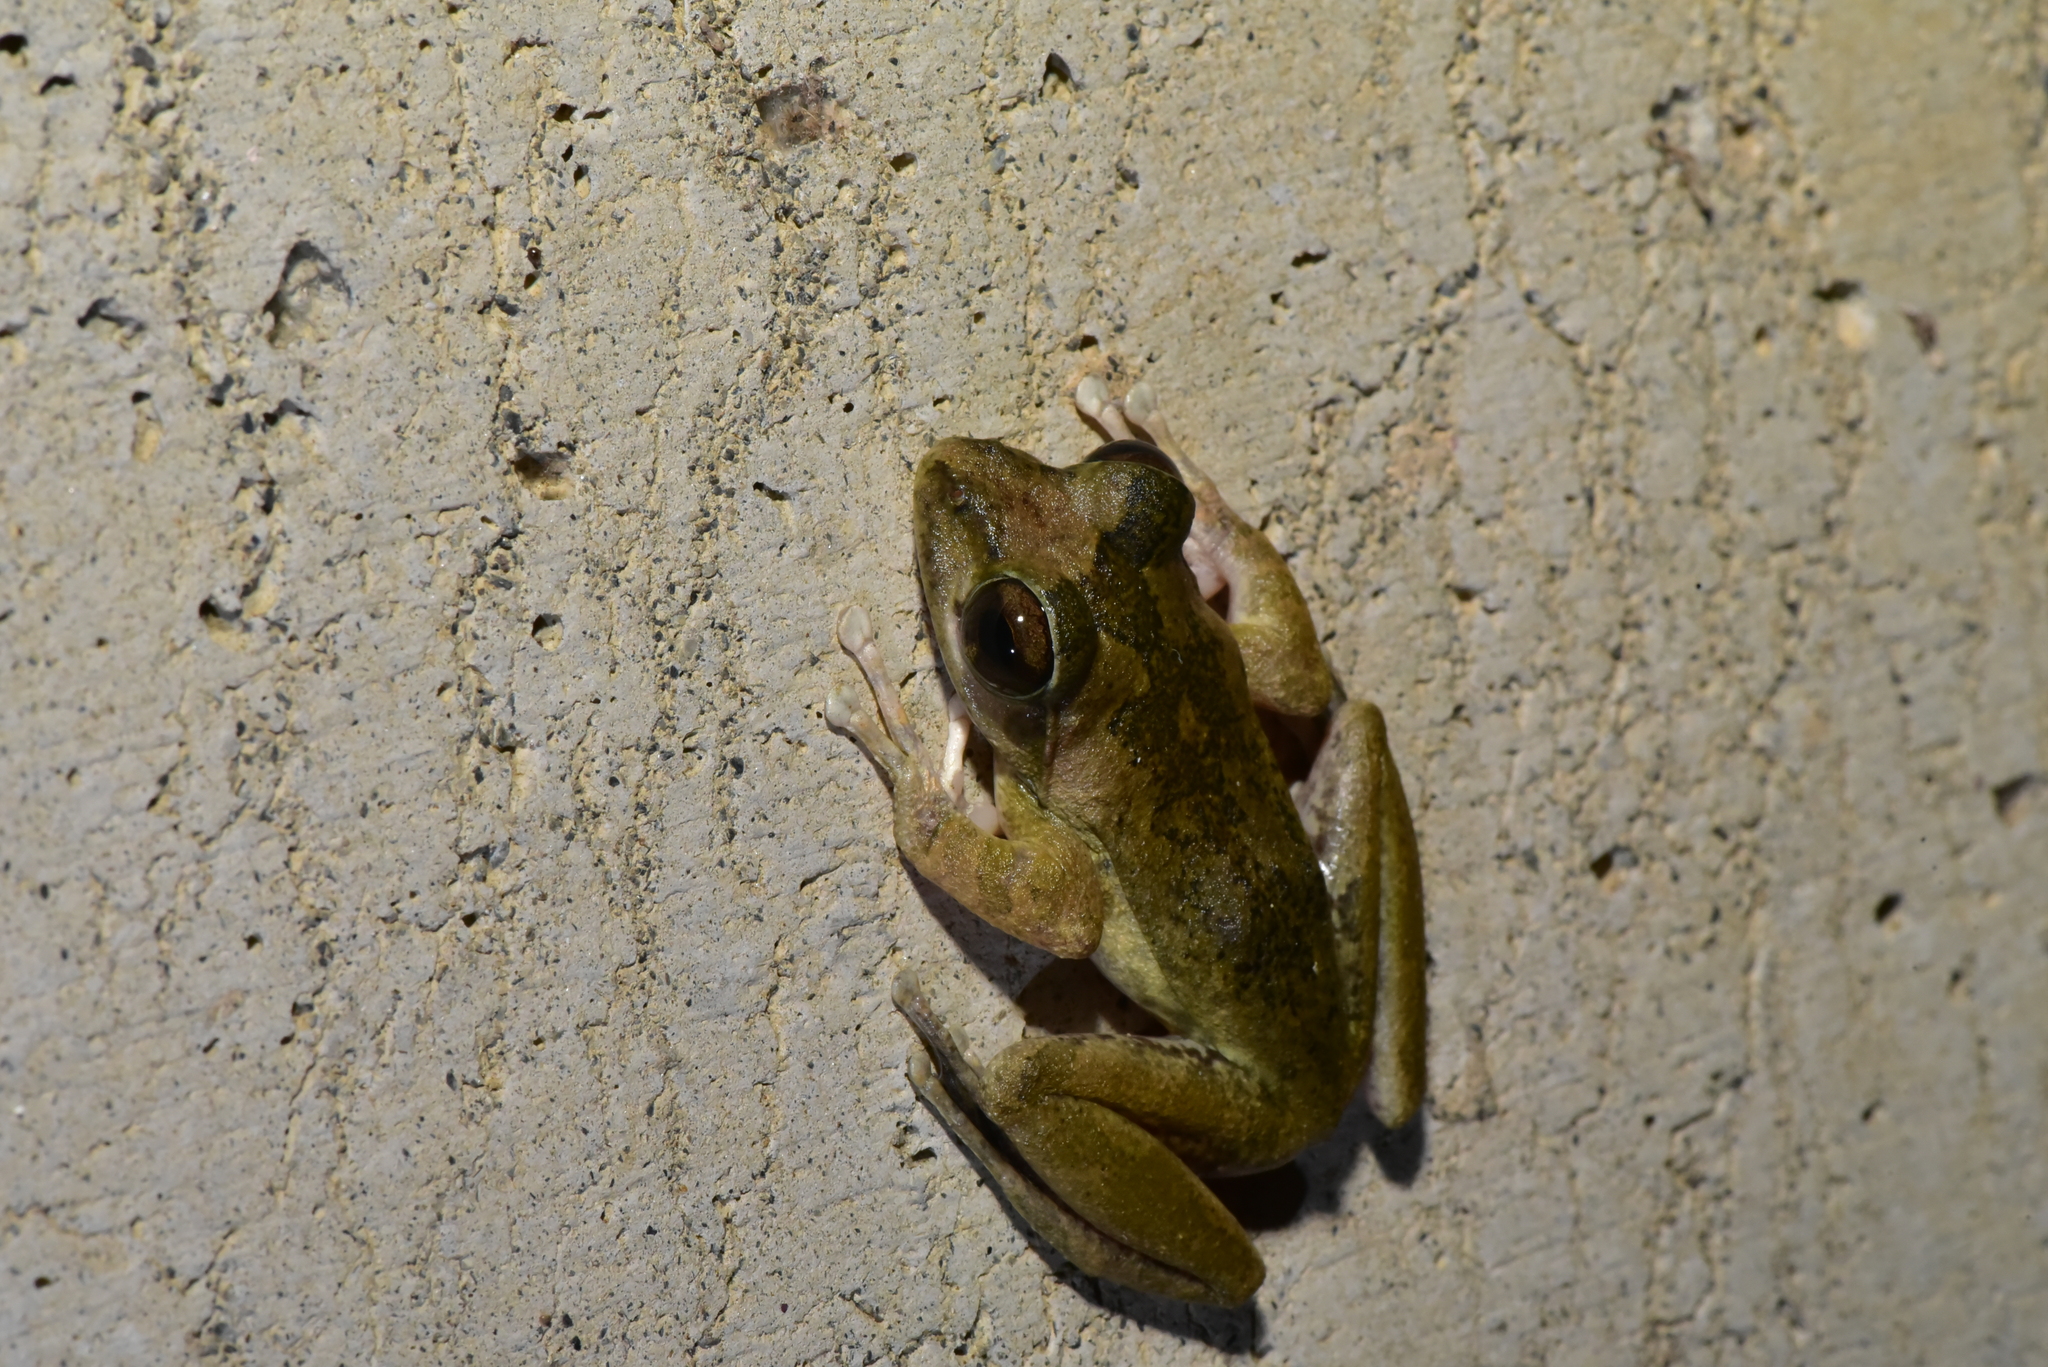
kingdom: Animalia
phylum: Chordata
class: Amphibia
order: Anura
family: Rhacophoridae
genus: Buergeria
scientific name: Buergeria robusta
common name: Brown treefrog
